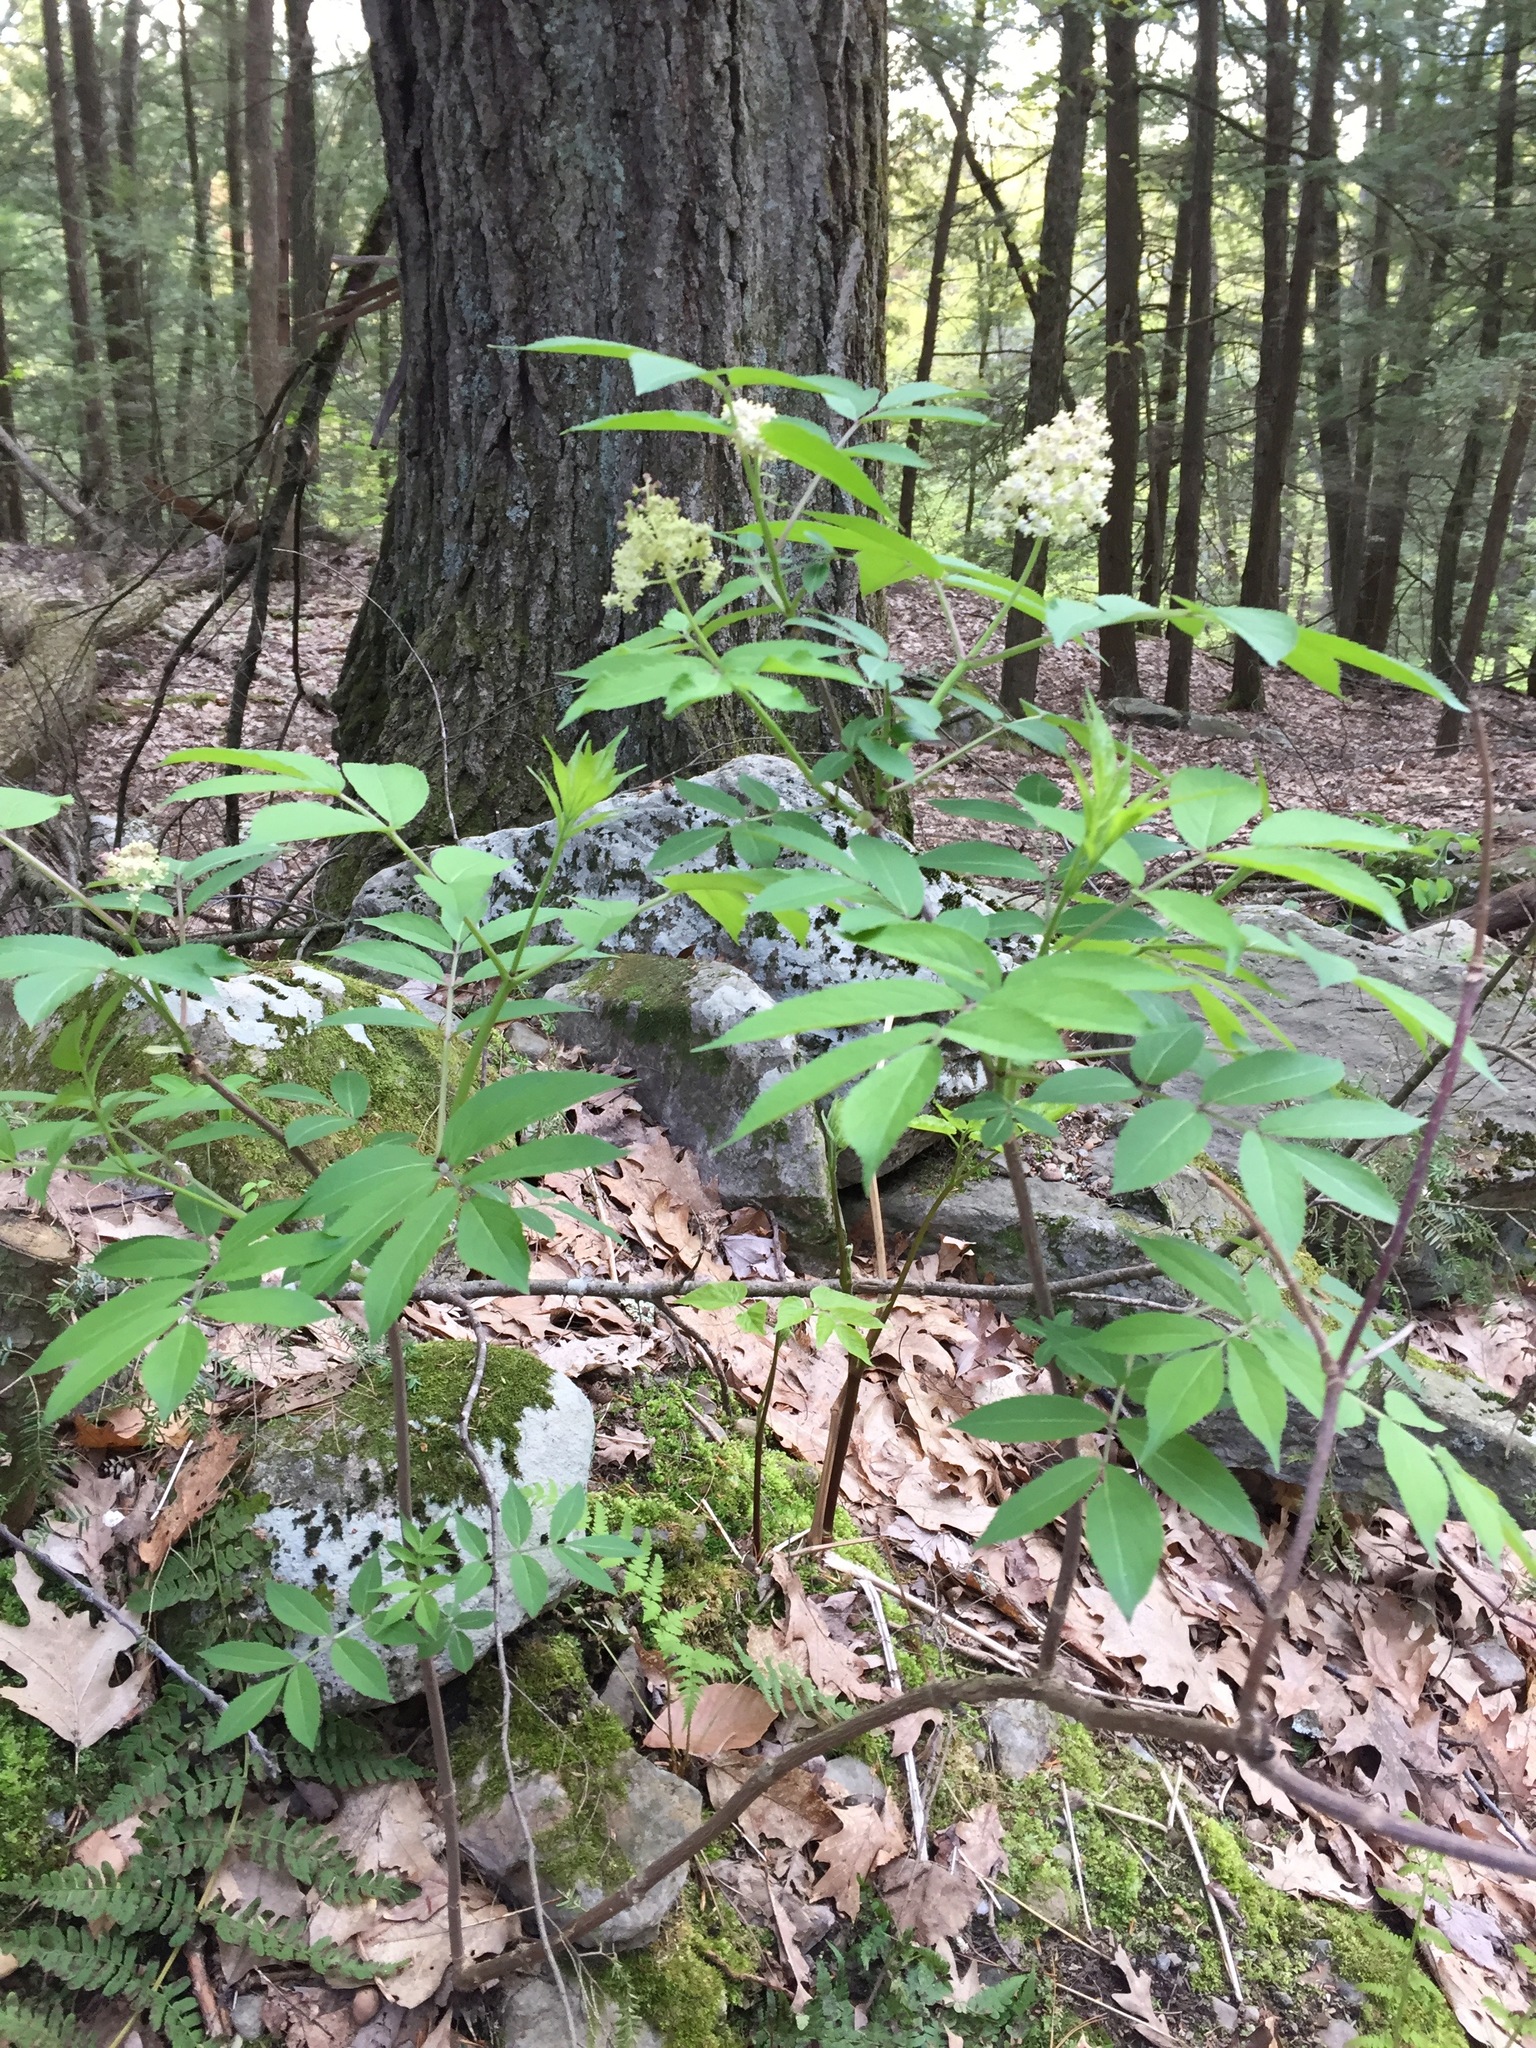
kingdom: Plantae
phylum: Tracheophyta
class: Magnoliopsida
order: Dipsacales
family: Viburnaceae
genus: Sambucus
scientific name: Sambucus racemosa
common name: Red-berried elder
